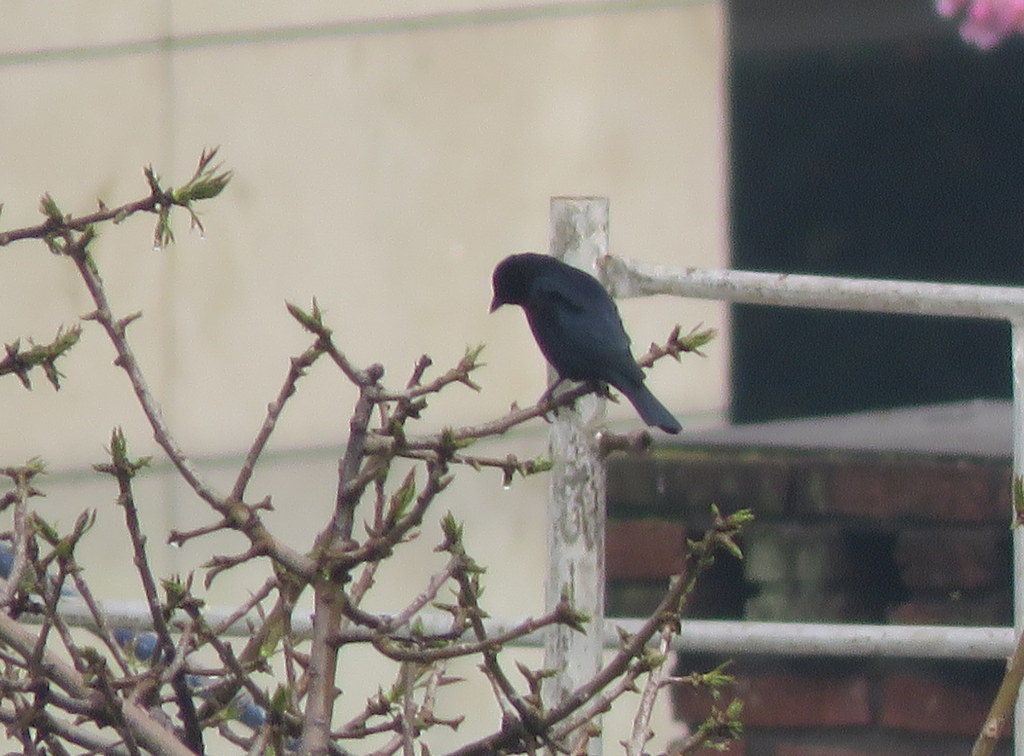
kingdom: Animalia
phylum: Chordata
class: Aves
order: Passeriformes
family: Icteridae
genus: Molothrus
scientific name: Molothrus bonariensis
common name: Shiny cowbird
